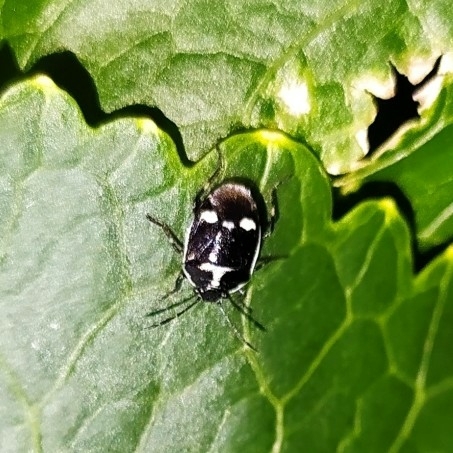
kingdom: Animalia
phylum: Arthropoda
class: Insecta
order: Hemiptera
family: Pentatomidae
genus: Eurydema
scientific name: Eurydema oleracea
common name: Cabbage bug
